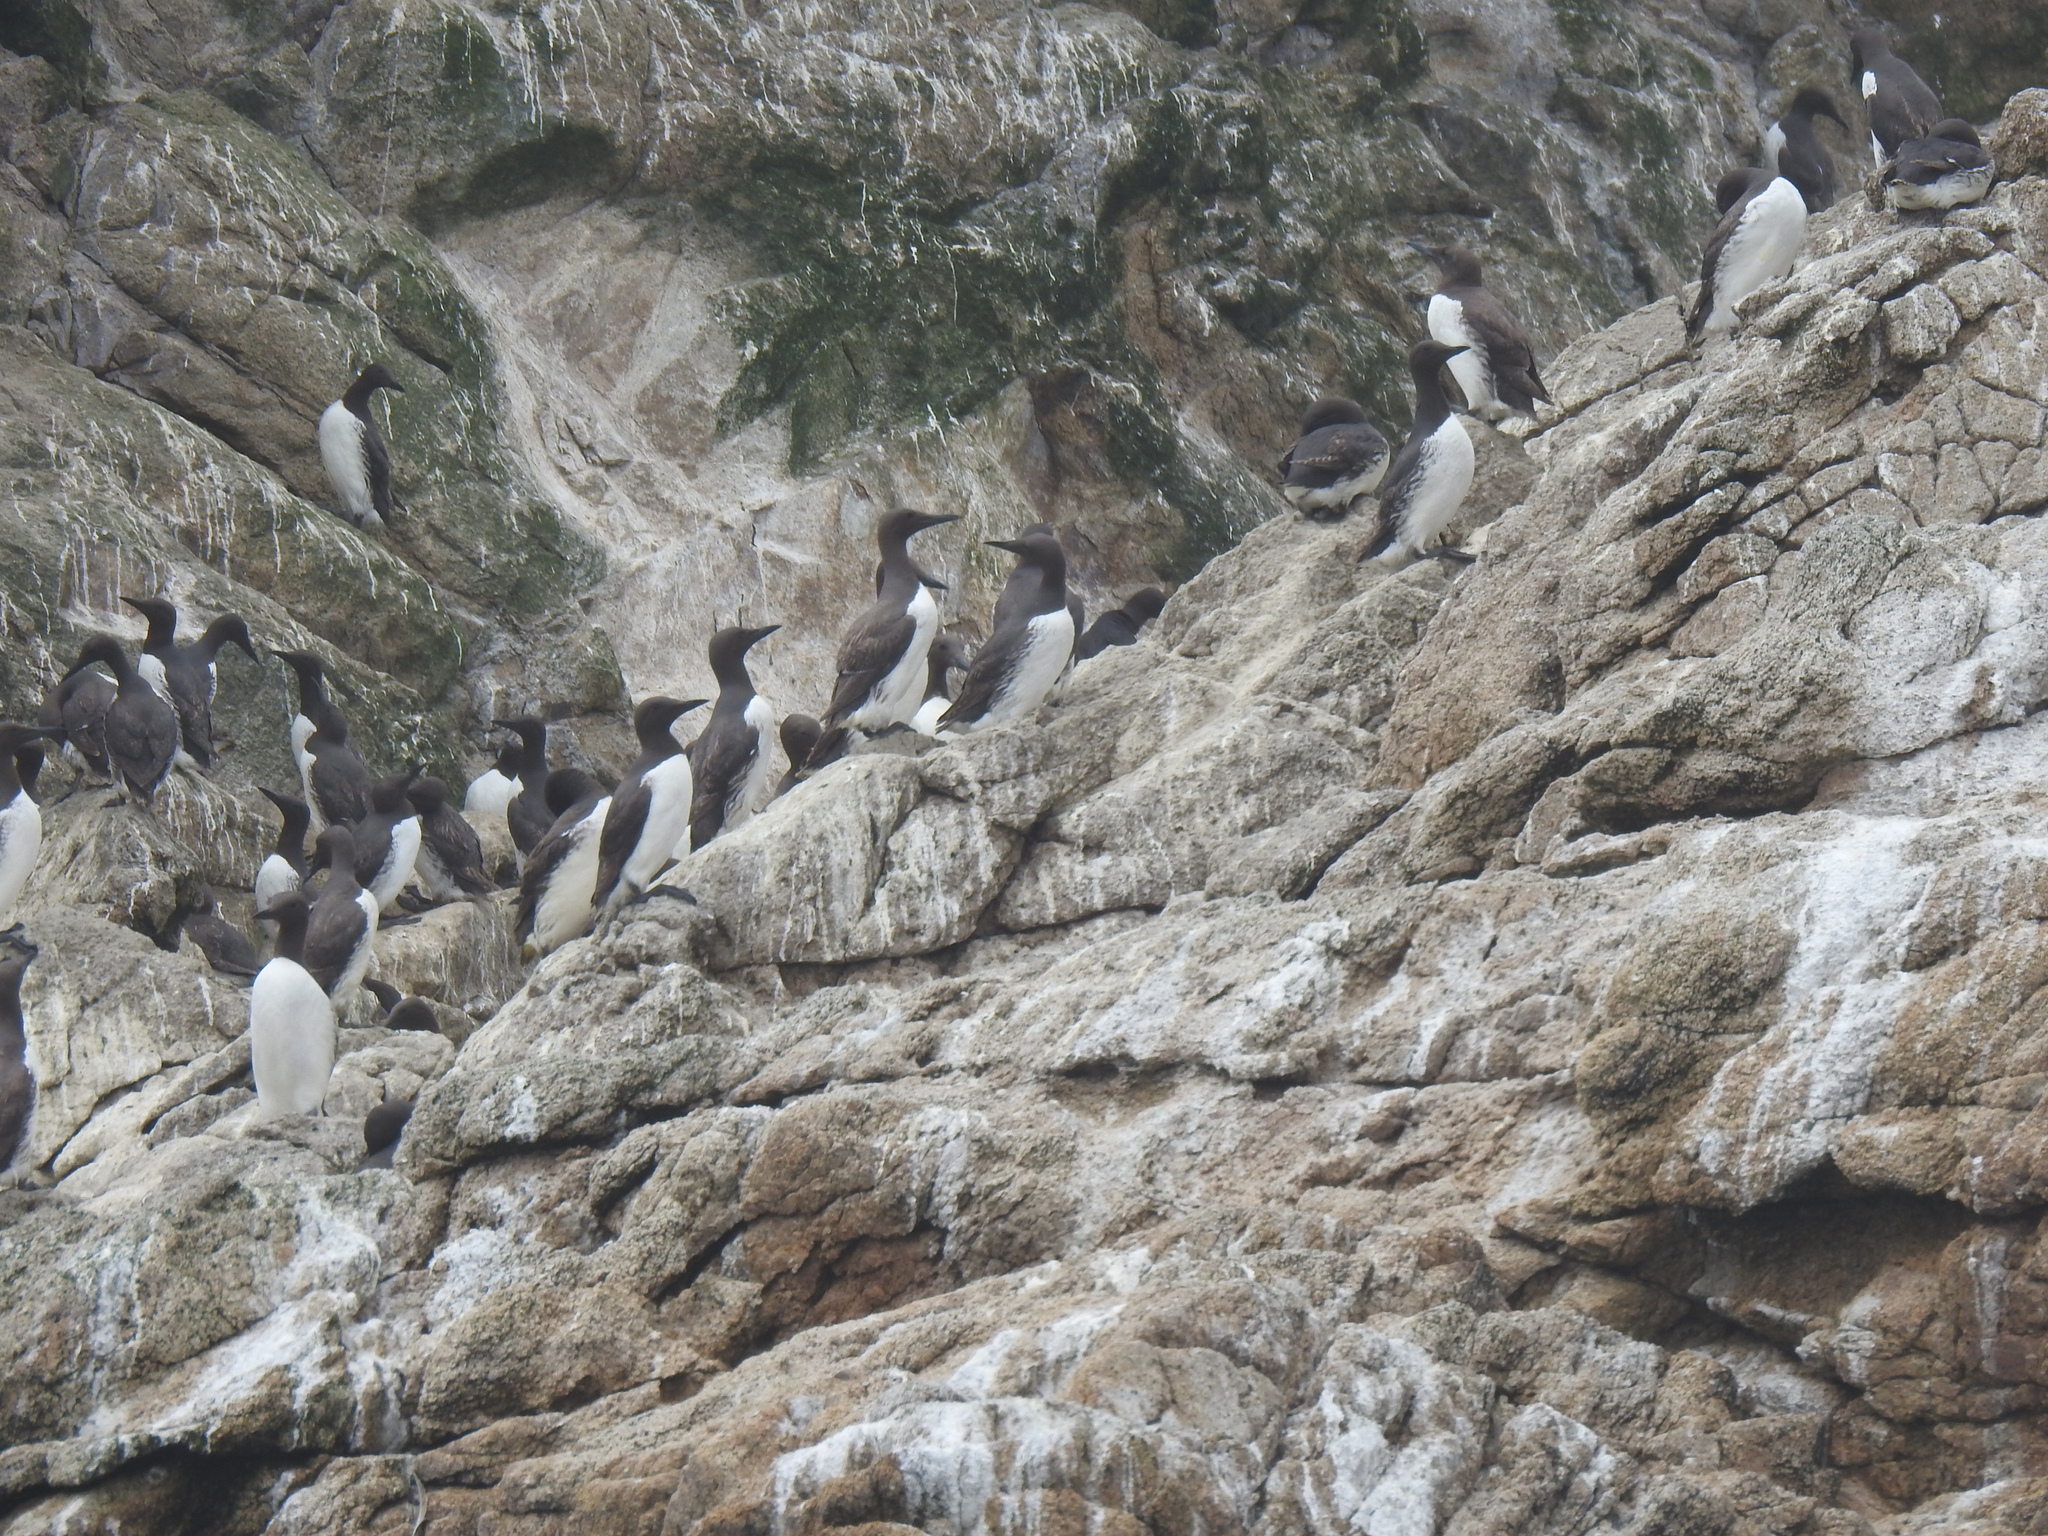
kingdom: Animalia
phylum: Chordata
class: Aves
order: Charadriiformes
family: Alcidae
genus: Uria
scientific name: Uria aalge
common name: Common murre
